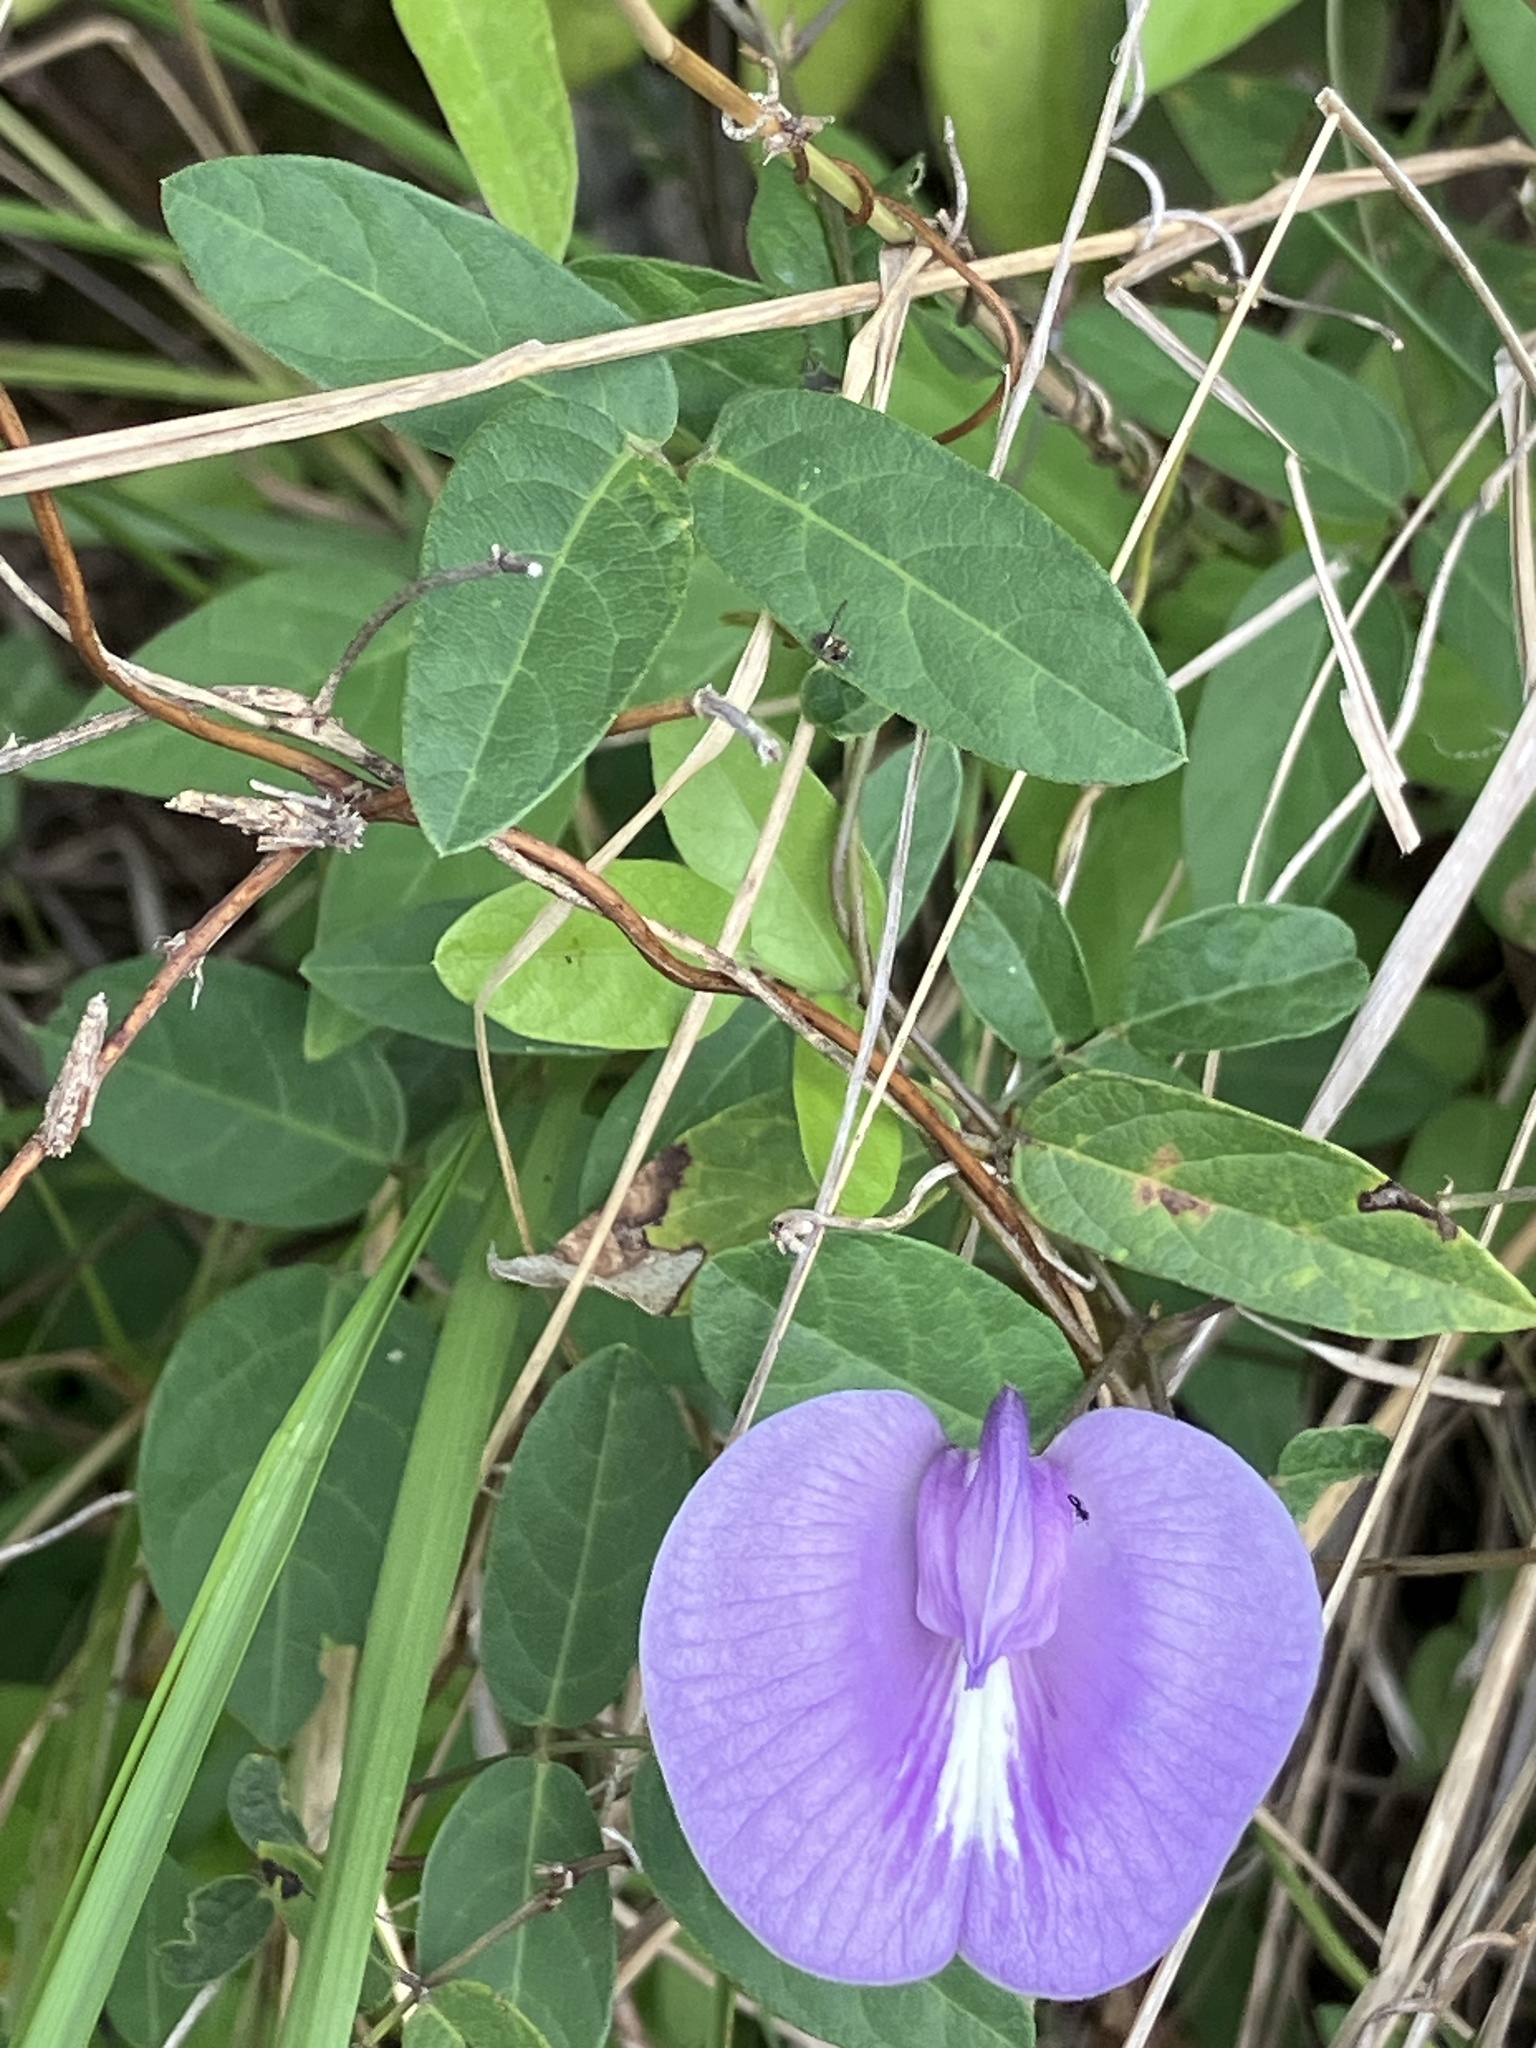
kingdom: Plantae
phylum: Tracheophyta
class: Magnoliopsida
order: Fabales
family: Fabaceae
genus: Centrosema
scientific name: Centrosema virginianum
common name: Butterfly-pea
